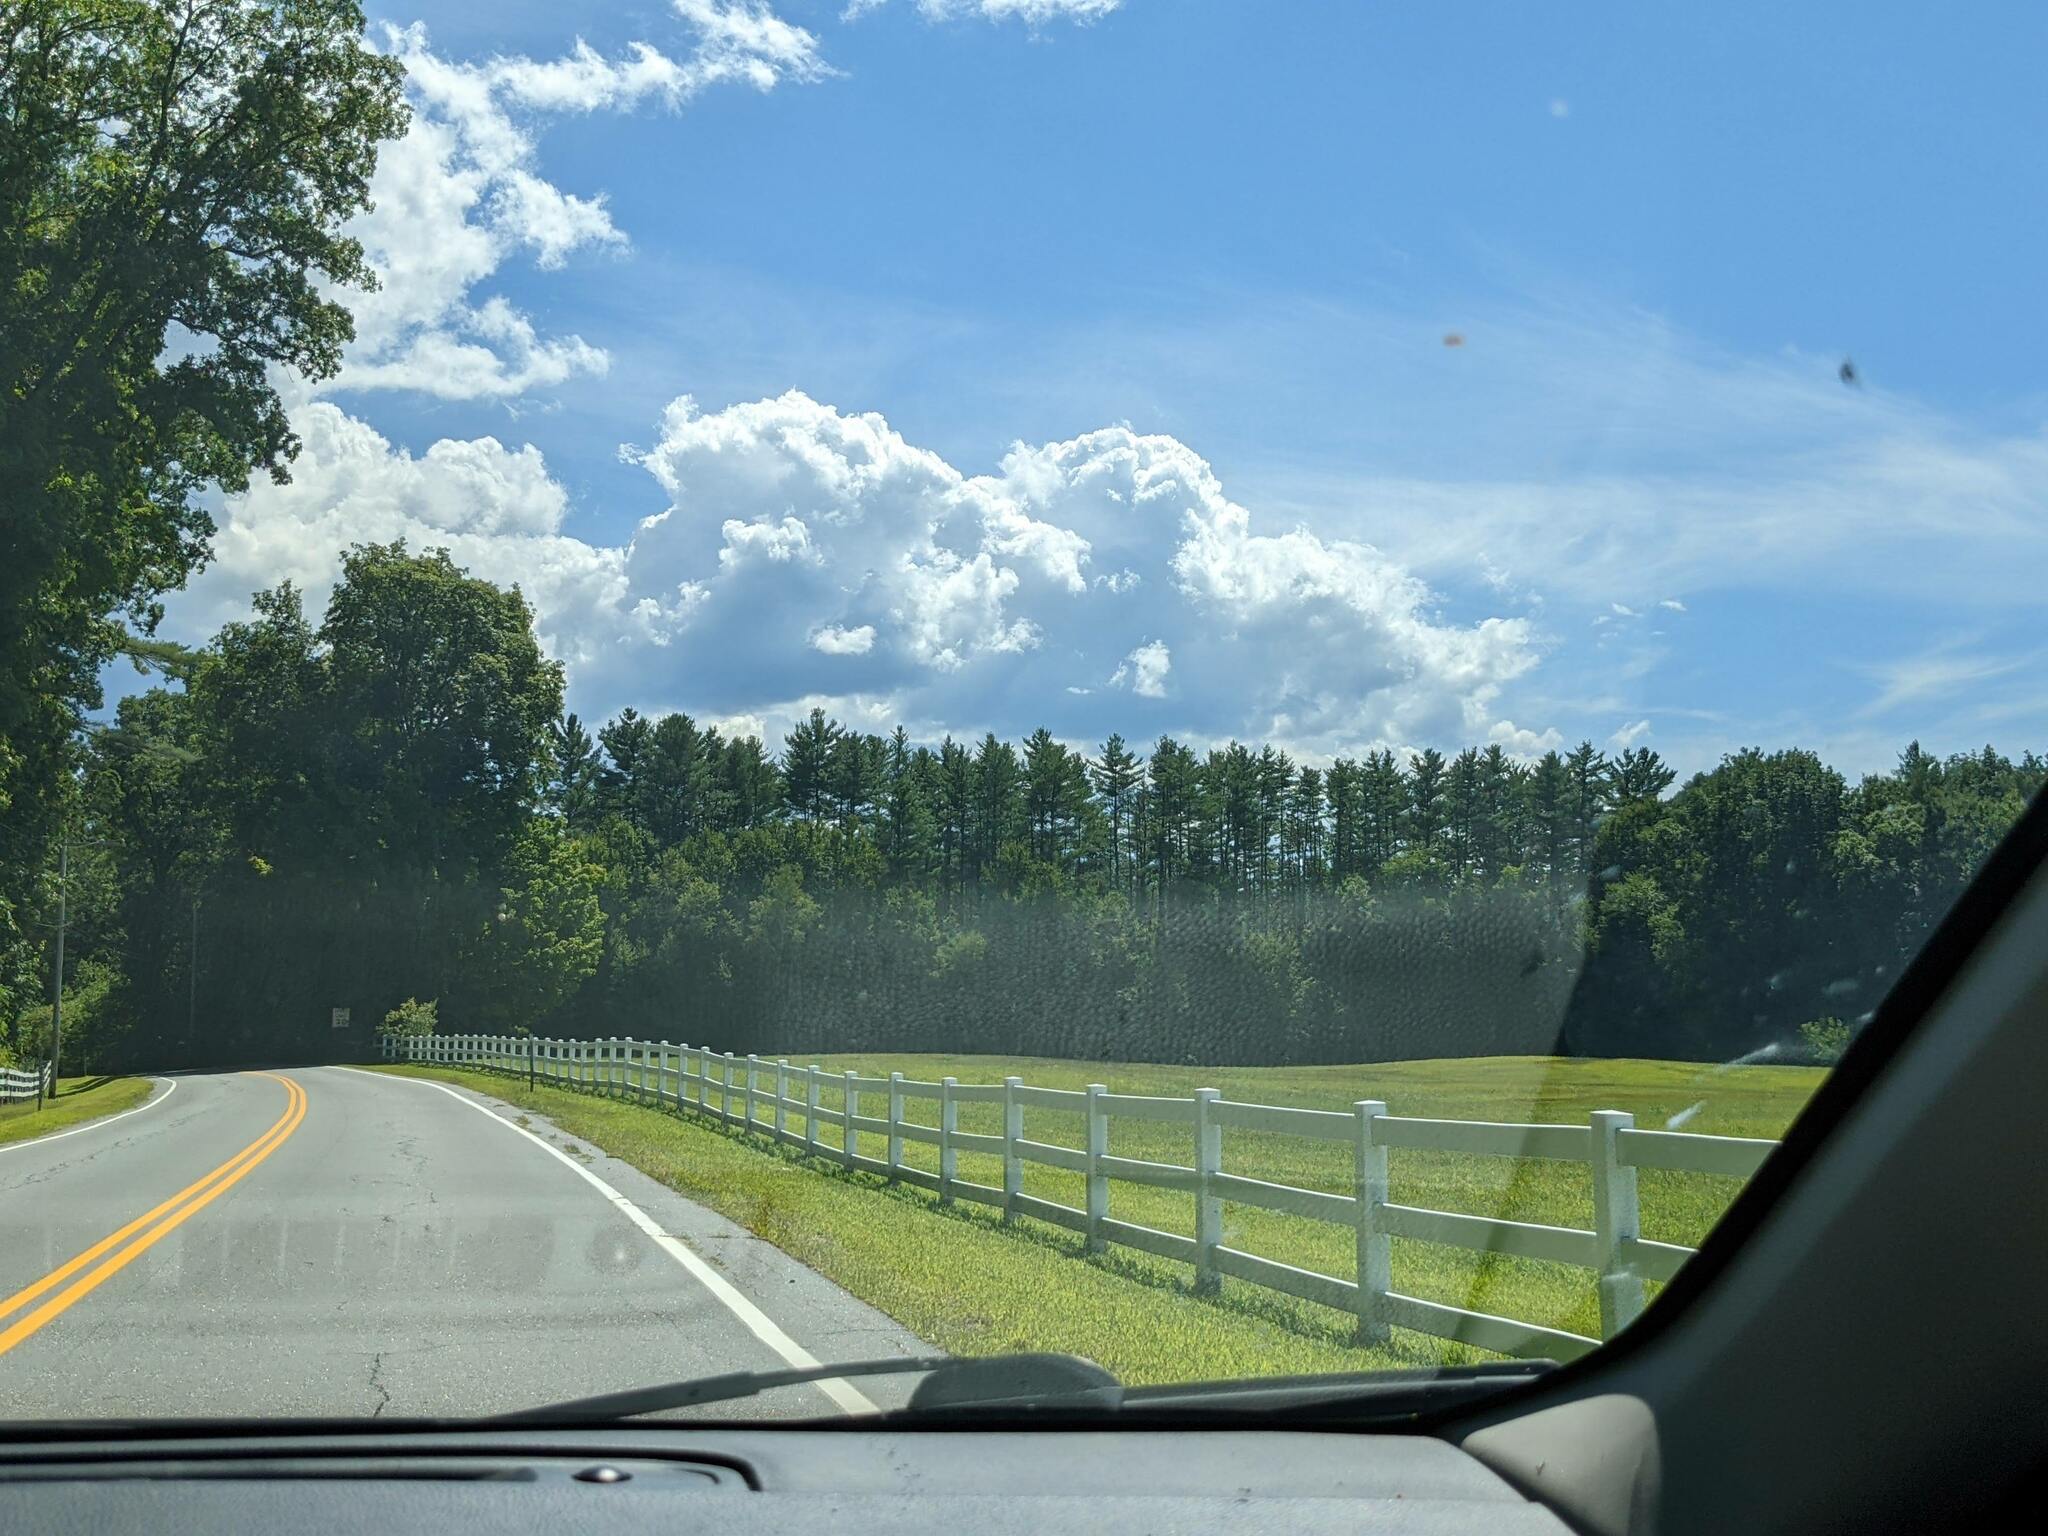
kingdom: Plantae
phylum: Tracheophyta
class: Pinopsida
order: Pinales
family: Pinaceae
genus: Pinus
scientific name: Pinus strobus
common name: Weymouth pine
